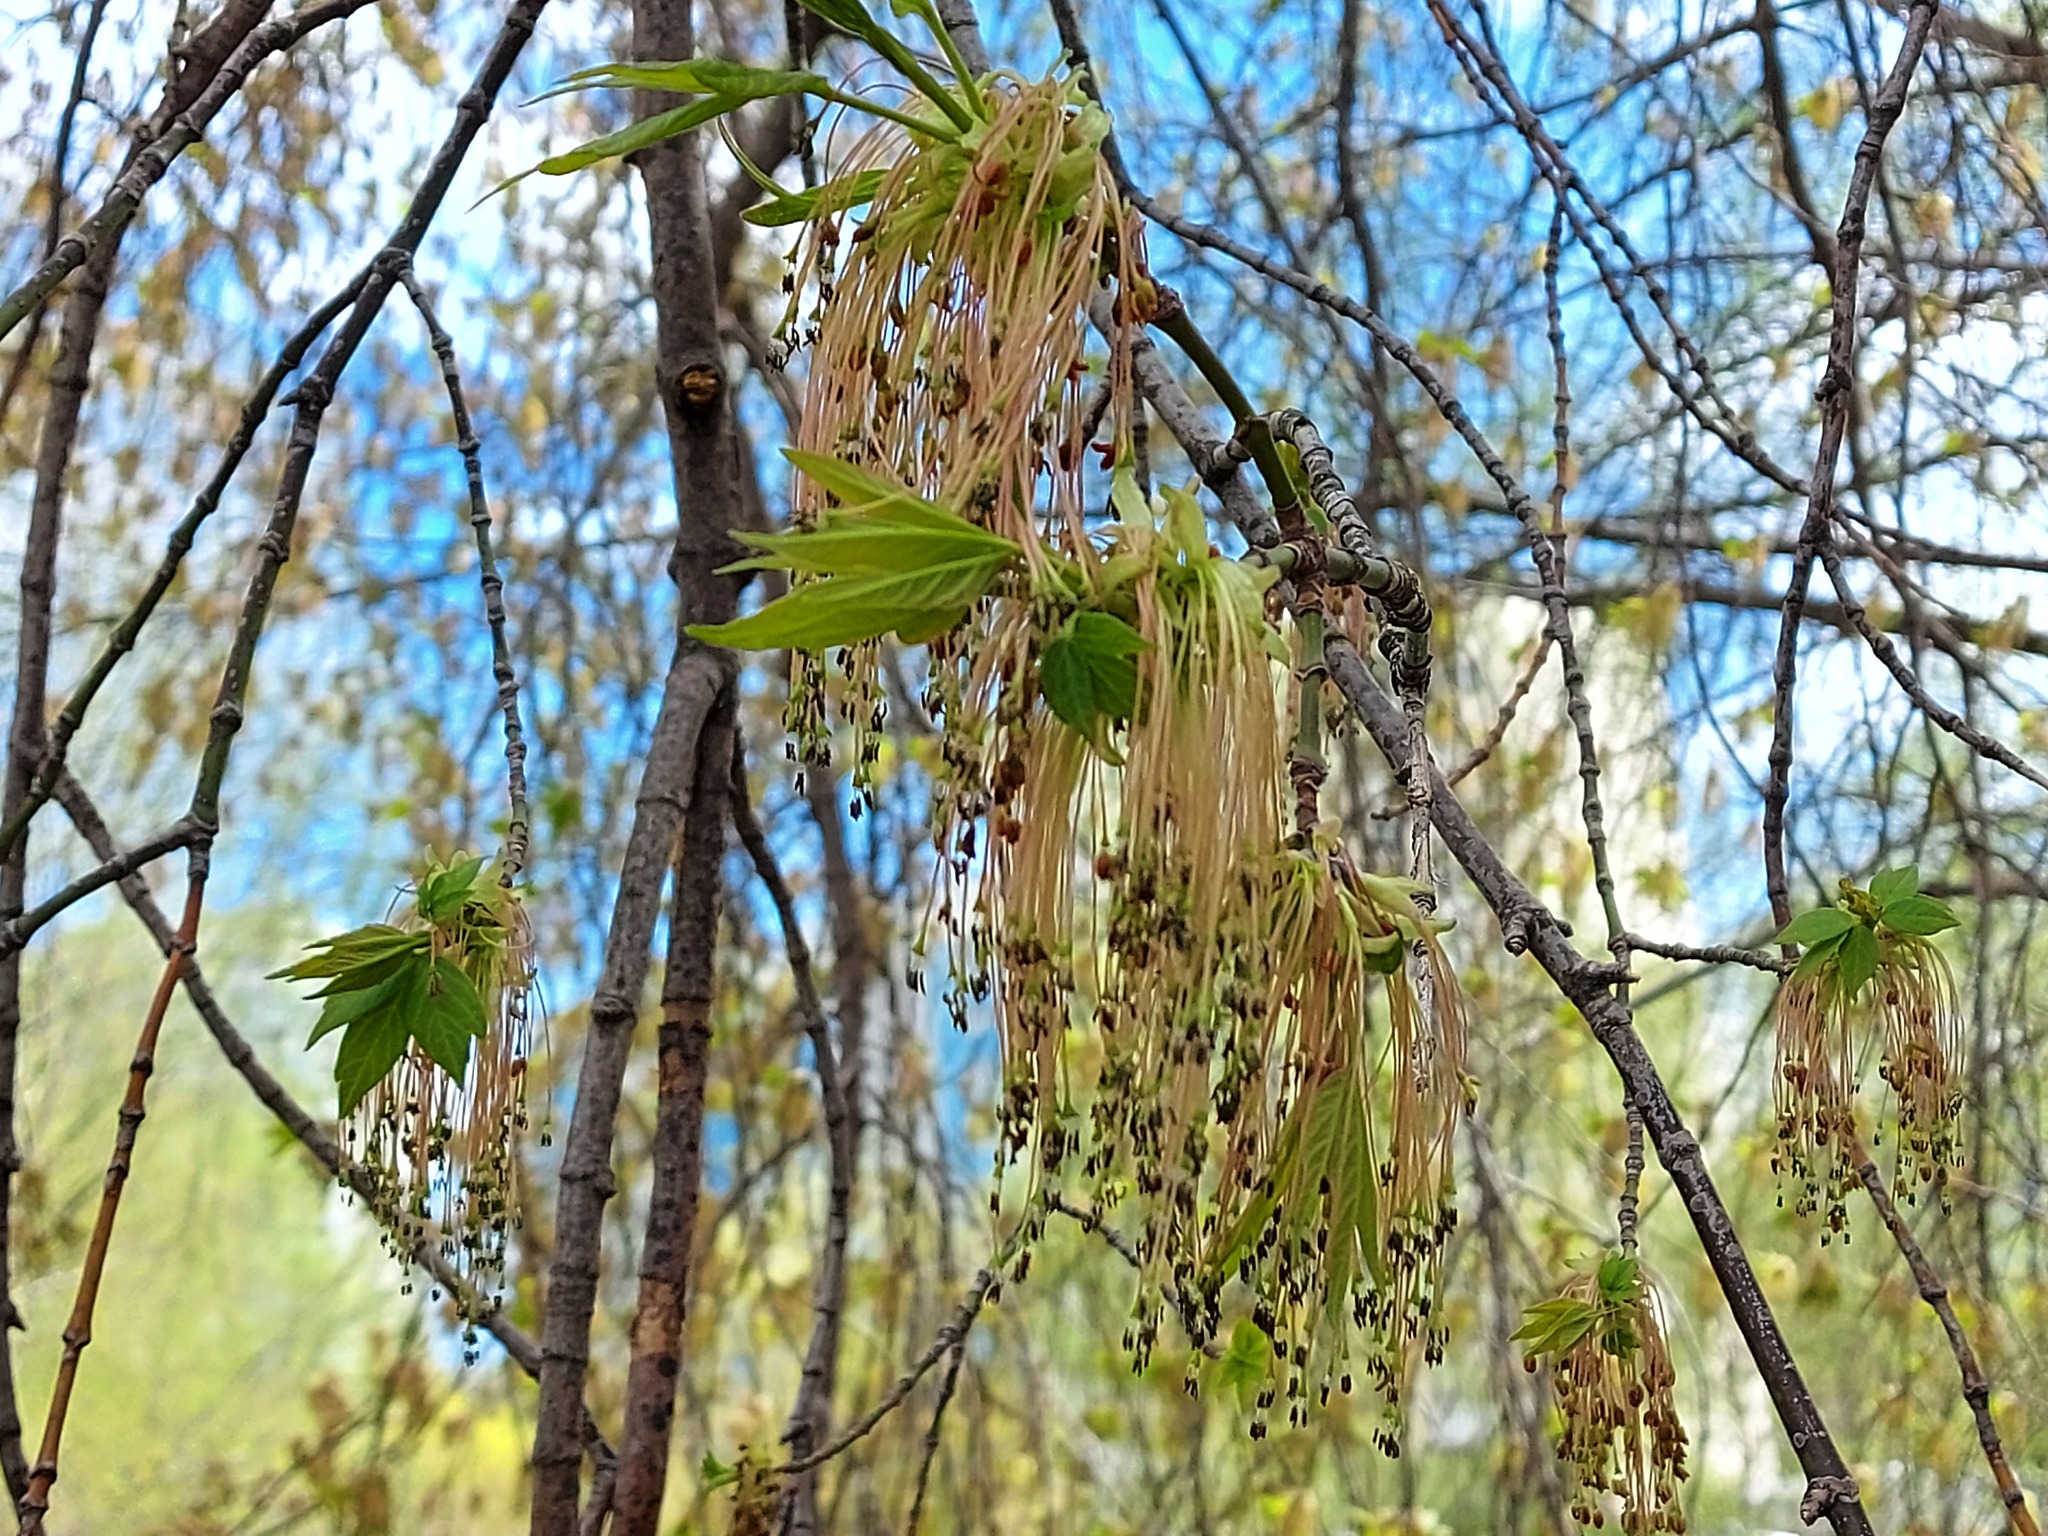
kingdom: Plantae
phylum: Tracheophyta
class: Magnoliopsida
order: Sapindales
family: Sapindaceae
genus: Acer
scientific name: Acer negundo
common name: Ashleaf maple
